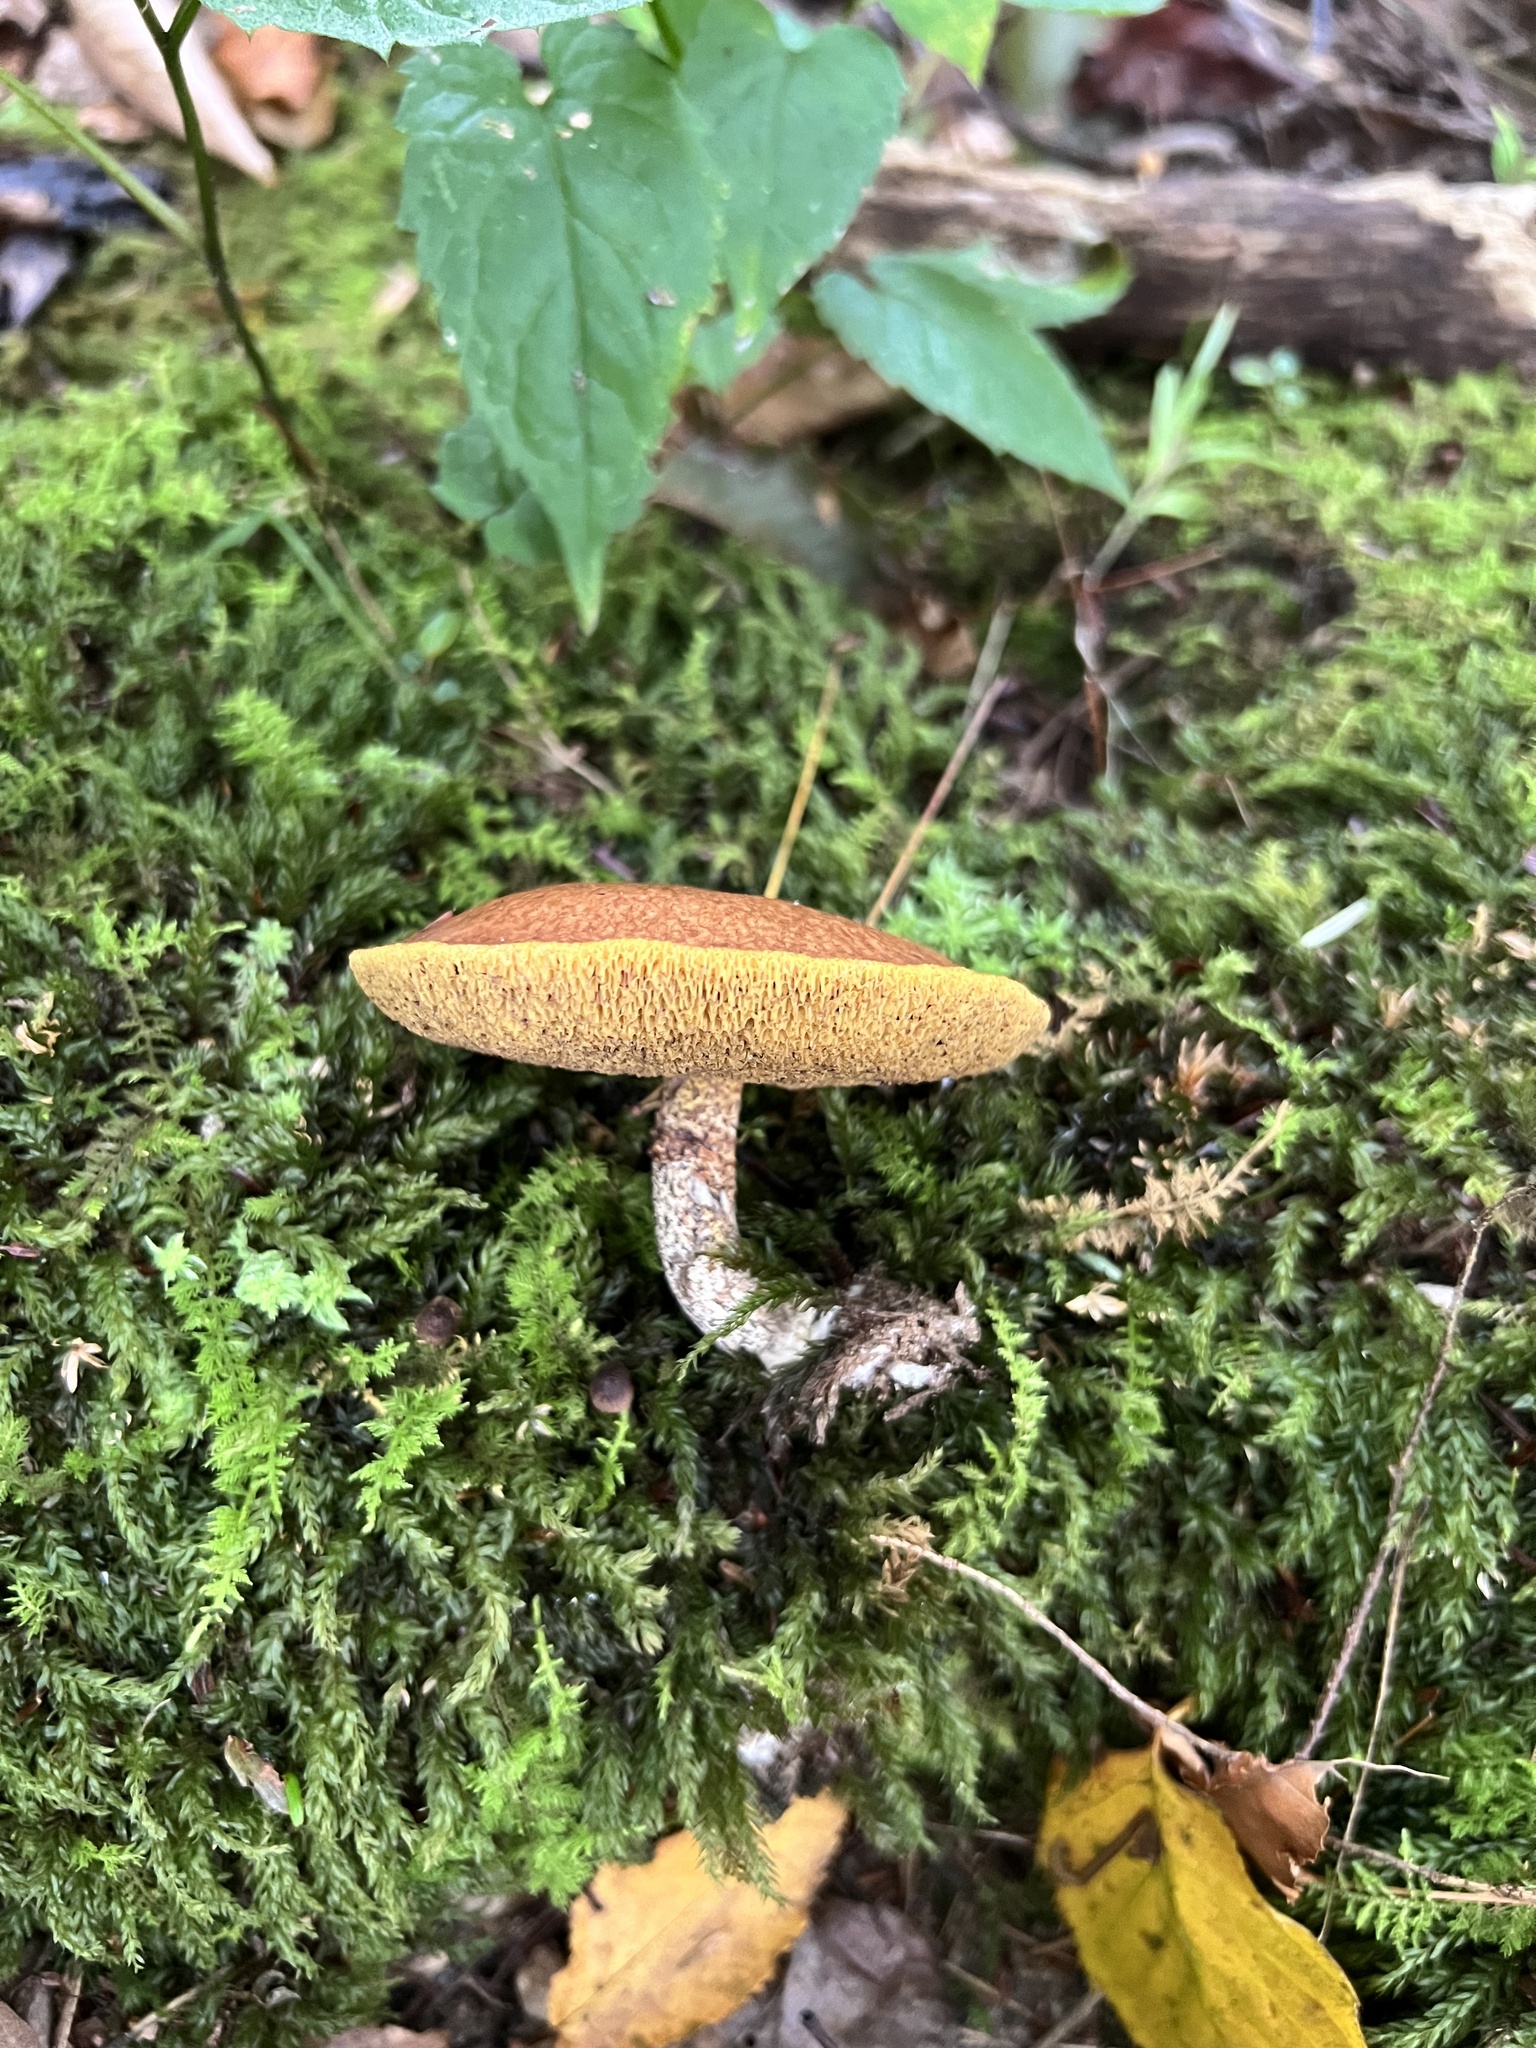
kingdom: Fungi
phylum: Basidiomycota
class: Agaricomycetes
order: Boletales
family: Suillaceae
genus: Suillus
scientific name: Suillus acidus
